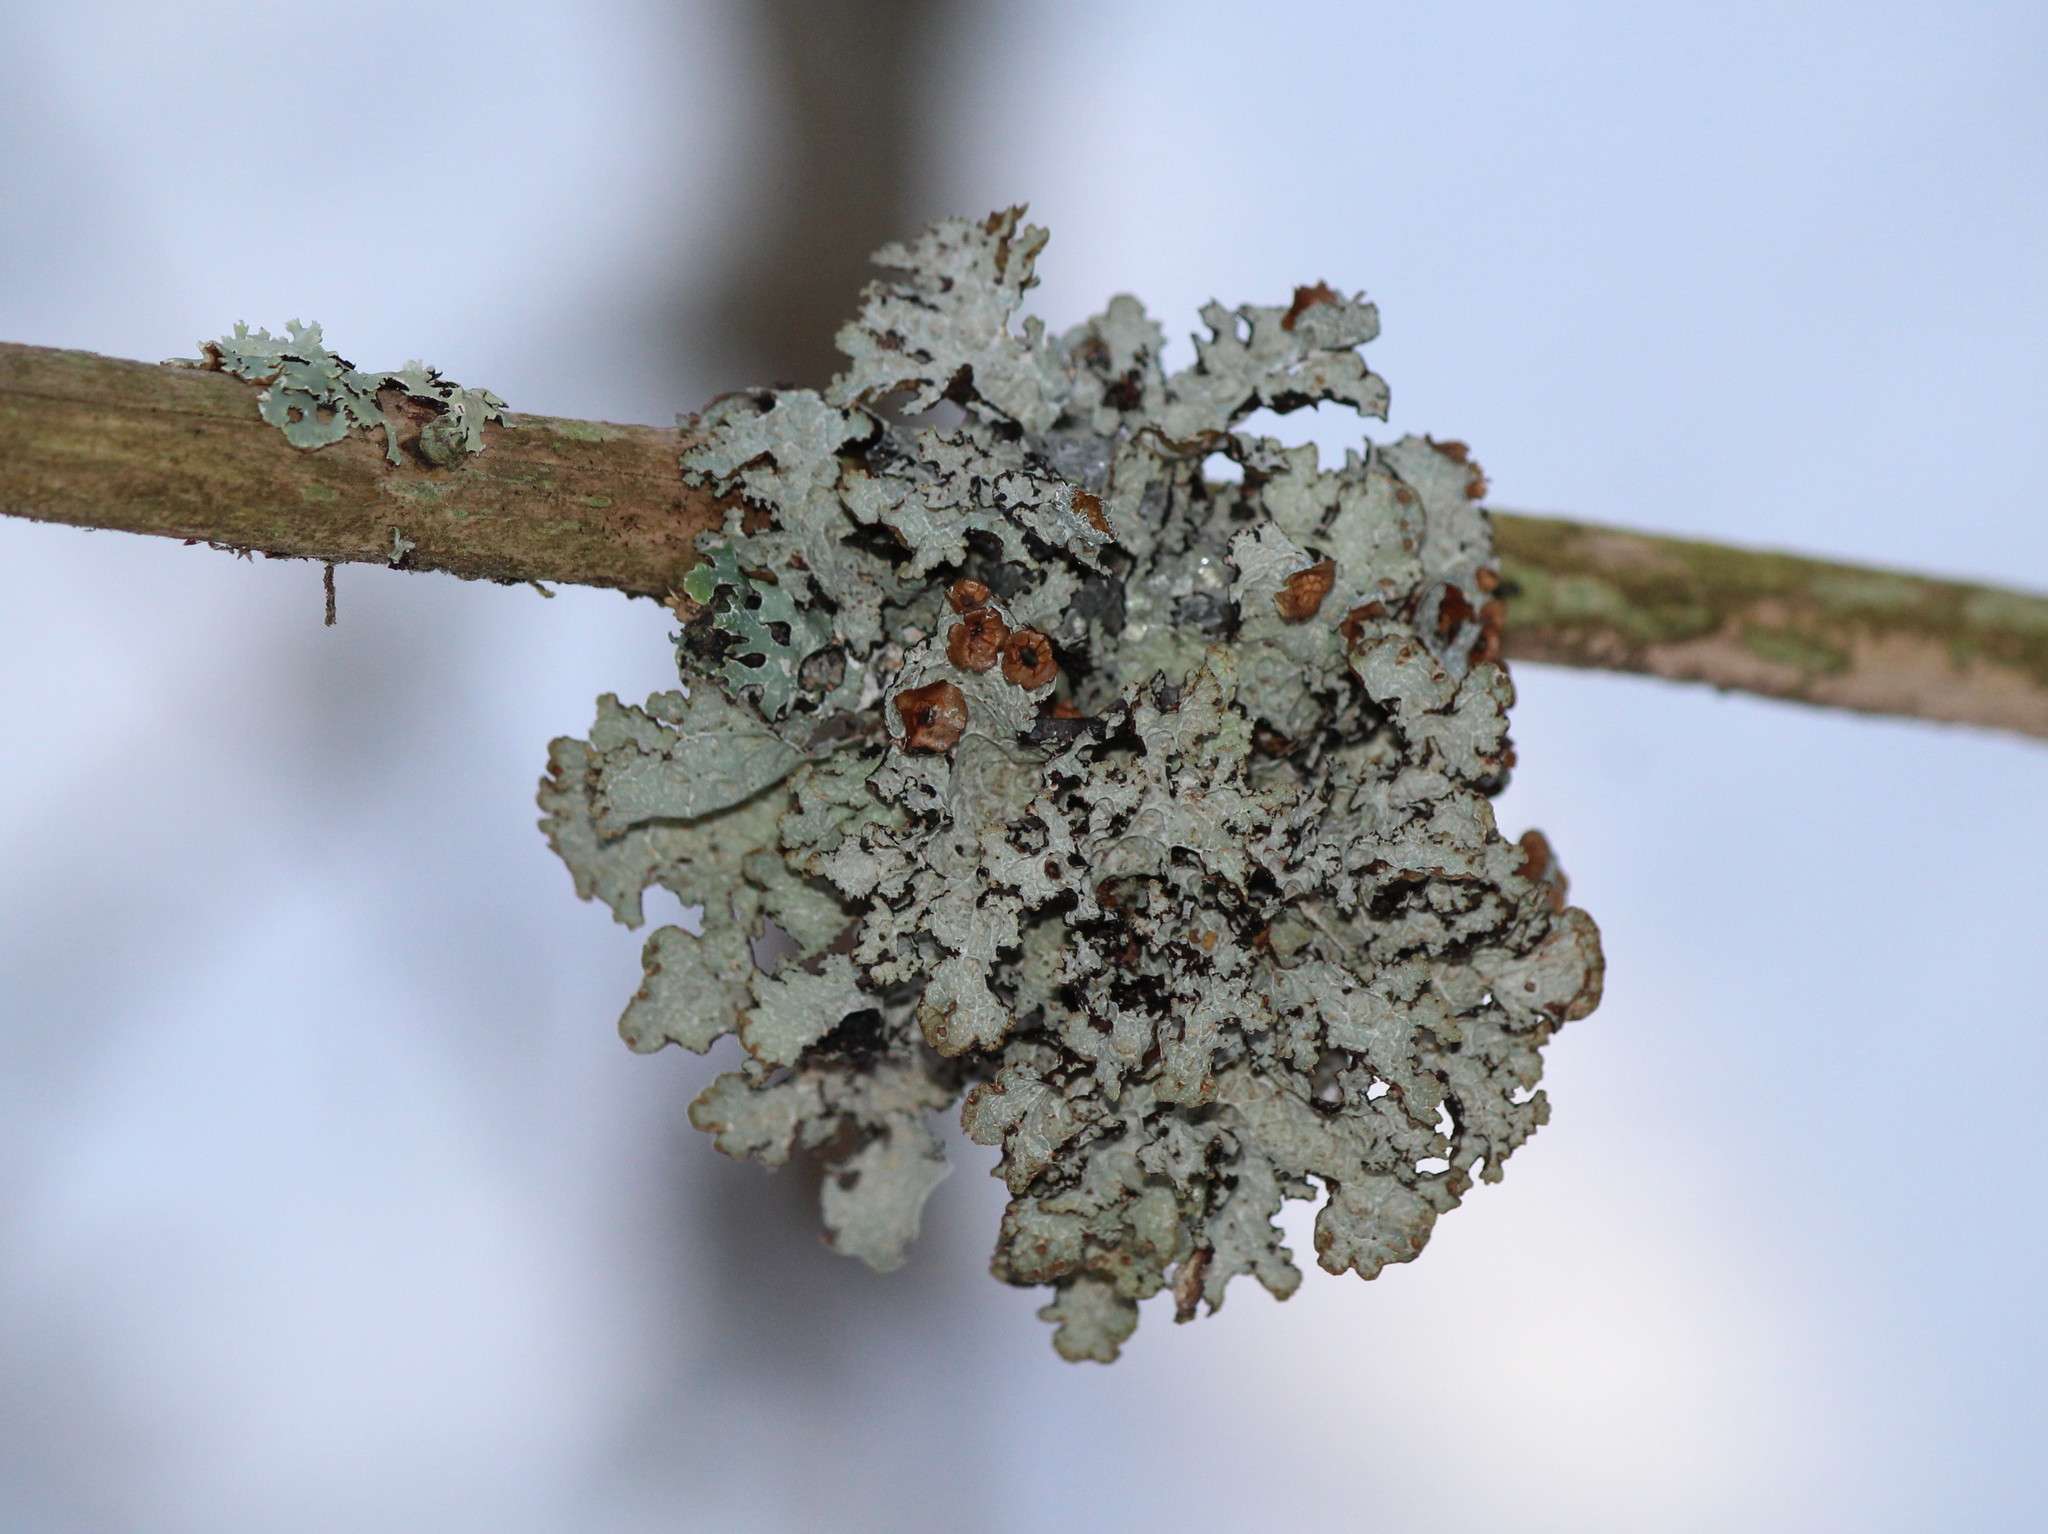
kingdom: Fungi
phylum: Ascomycota
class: Lecanoromycetes
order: Lecanorales
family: Parmeliaceae
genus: Platismatia
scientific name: Platismatia tuckermanii
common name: Crumpled rag lichen
